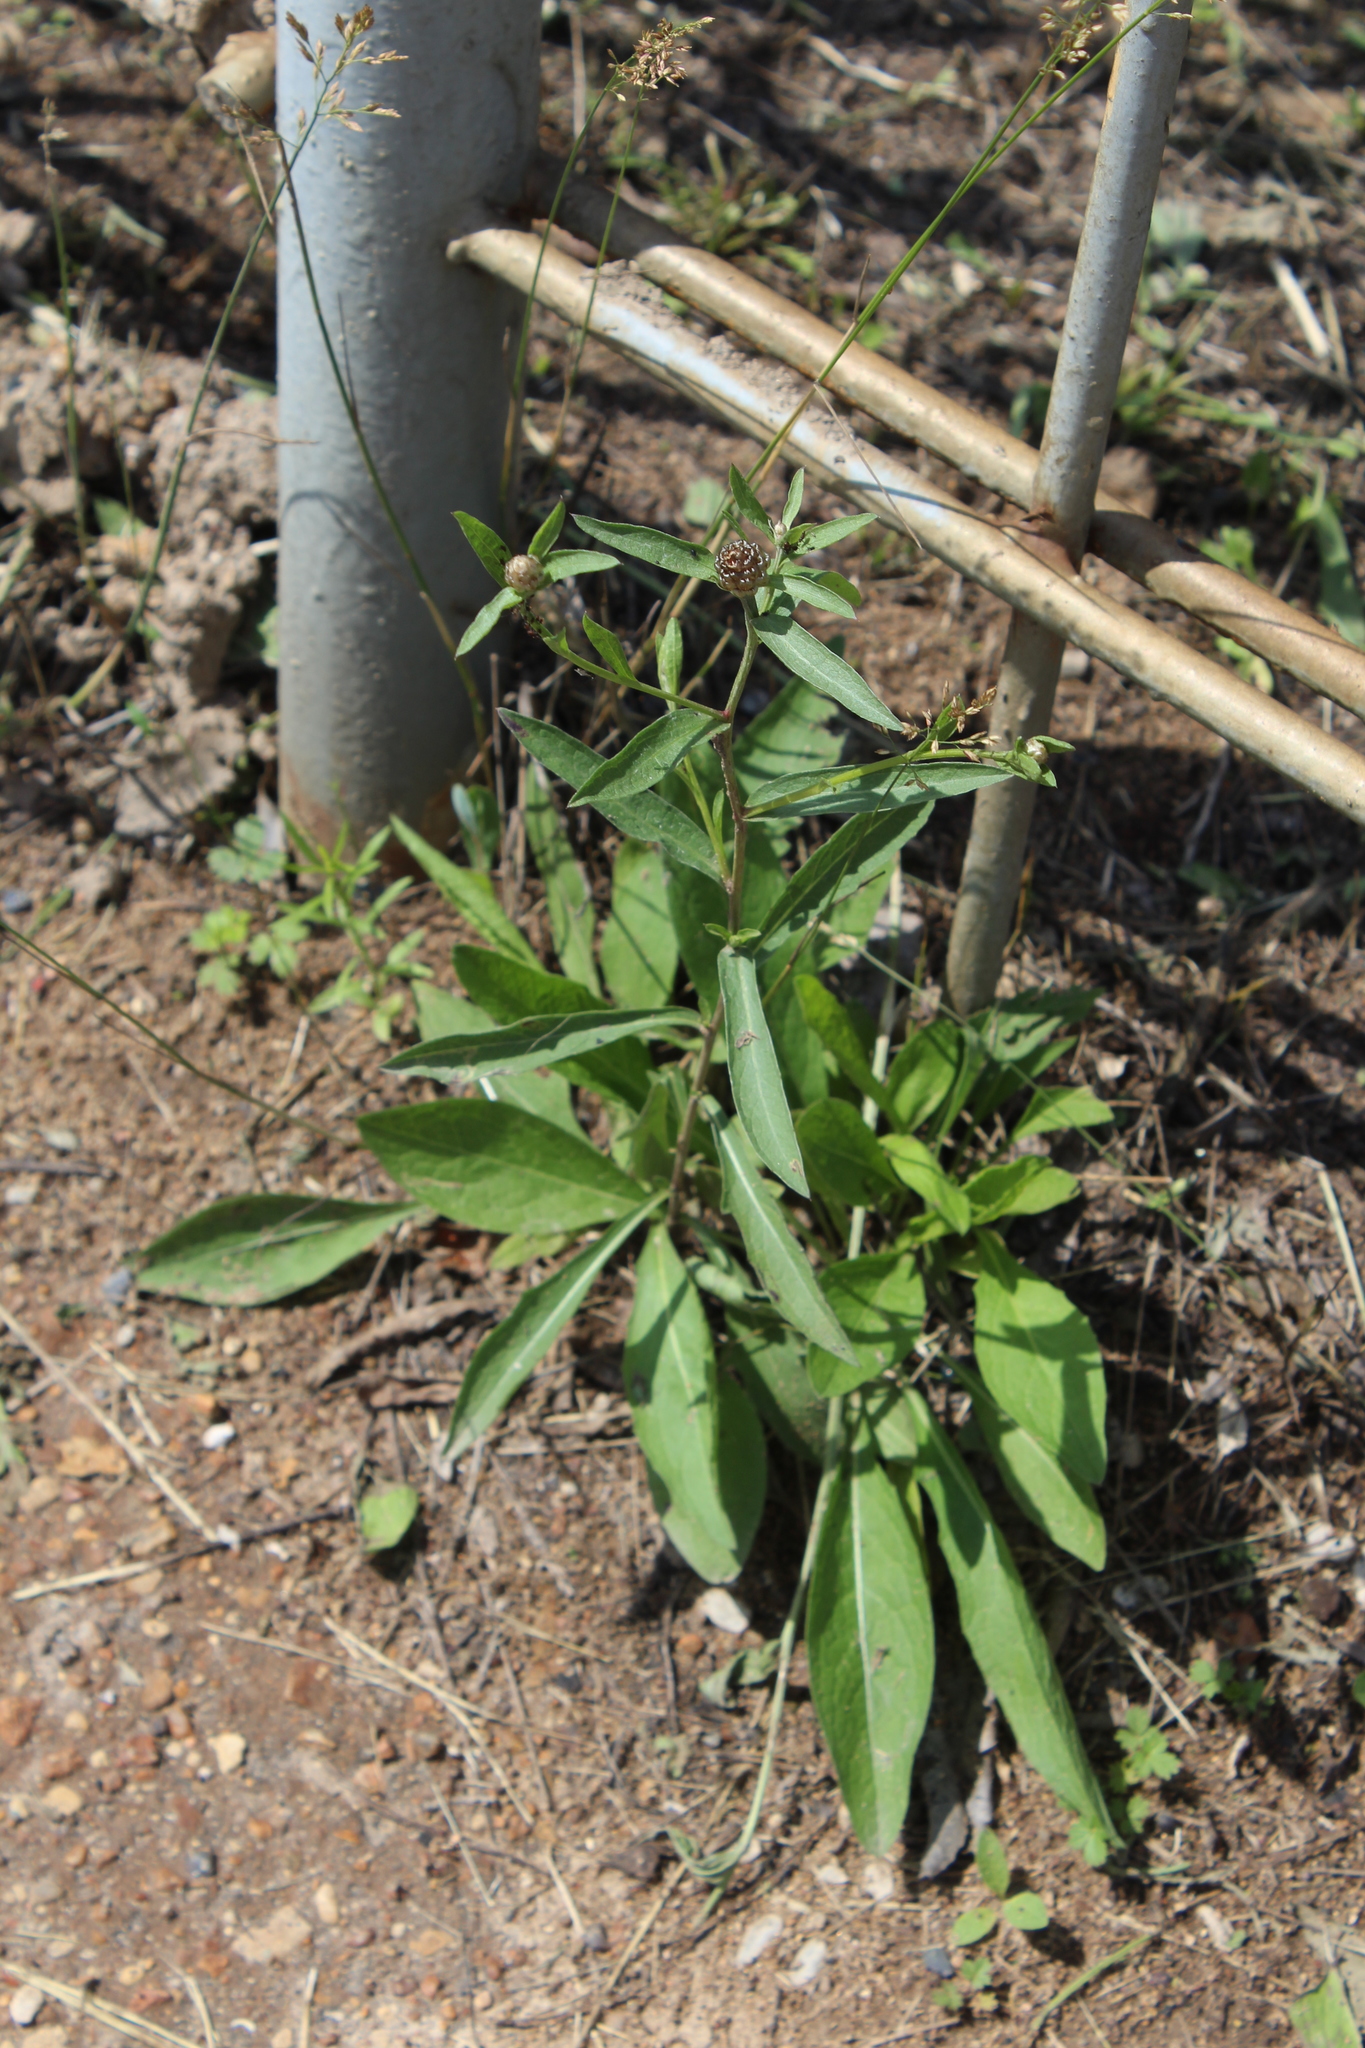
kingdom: Plantae
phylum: Tracheophyta
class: Magnoliopsida
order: Asterales
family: Asteraceae
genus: Centaurea
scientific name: Centaurea jacea
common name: Brown knapweed
